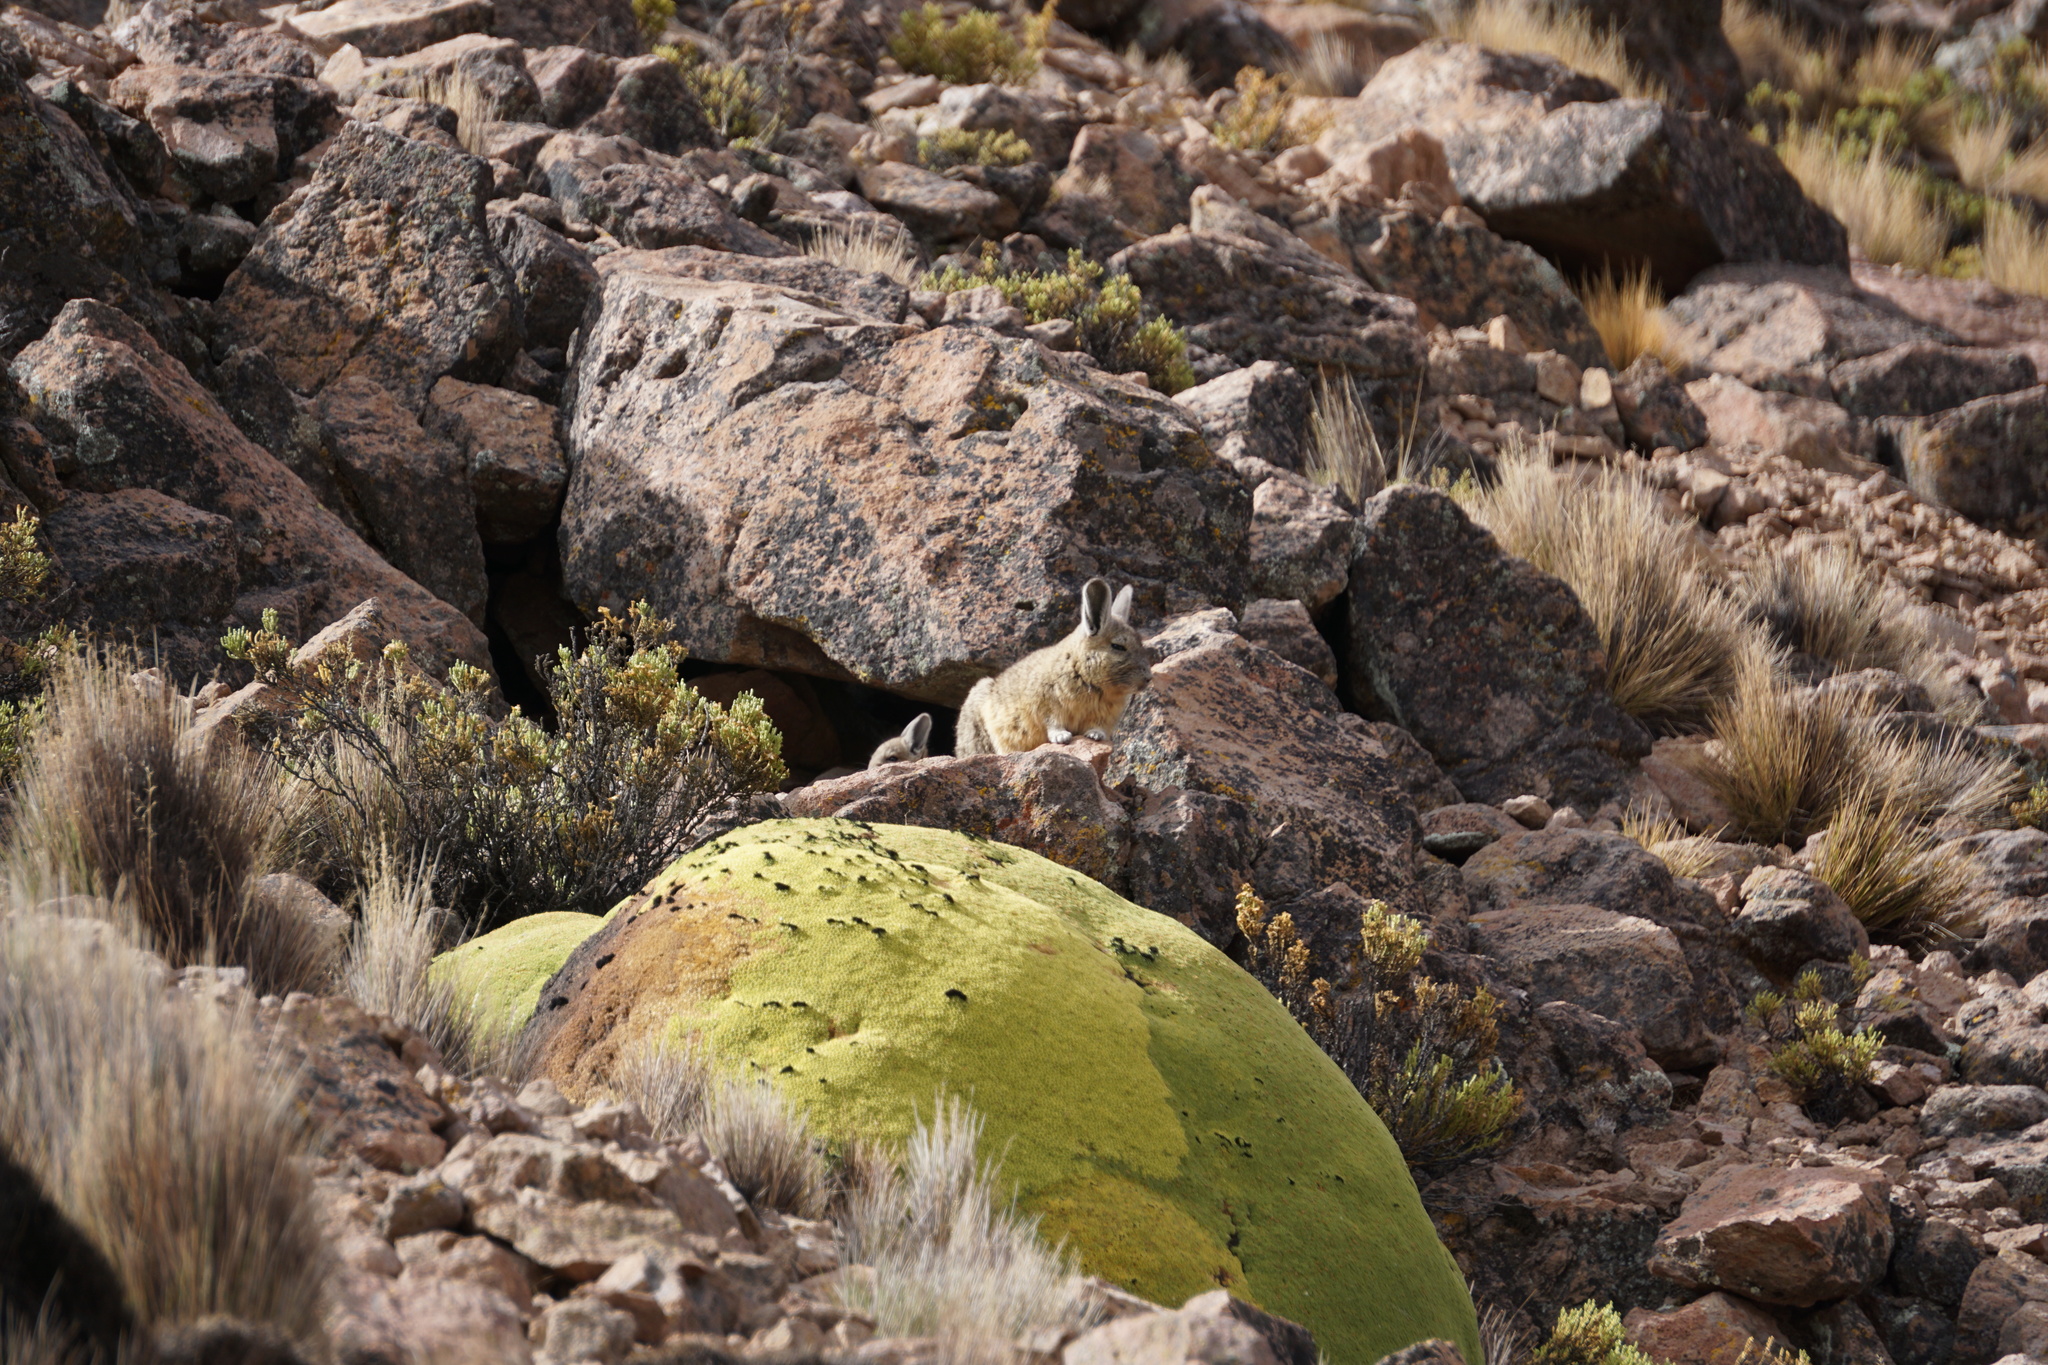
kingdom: Animalia
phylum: Chordata
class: Mammalia
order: Rodentia
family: Chinchillidae
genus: Lagidium
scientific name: Lagidium viscacia
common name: Southern viscacha
